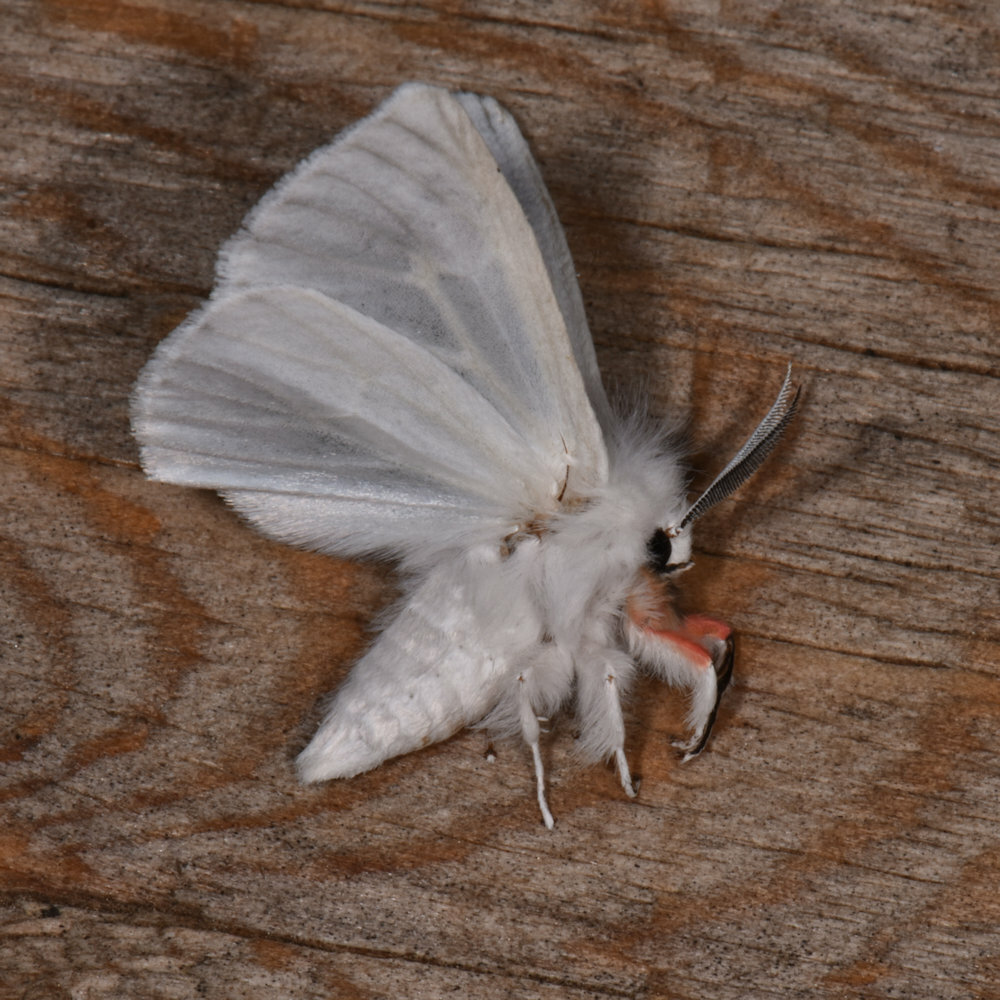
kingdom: Animalia
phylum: Arthropoda
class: Insecta
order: Lepidoptera
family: Erebidae
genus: Spilosoma
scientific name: Spilosoma latipennis
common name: Pink-legged tiger moth
